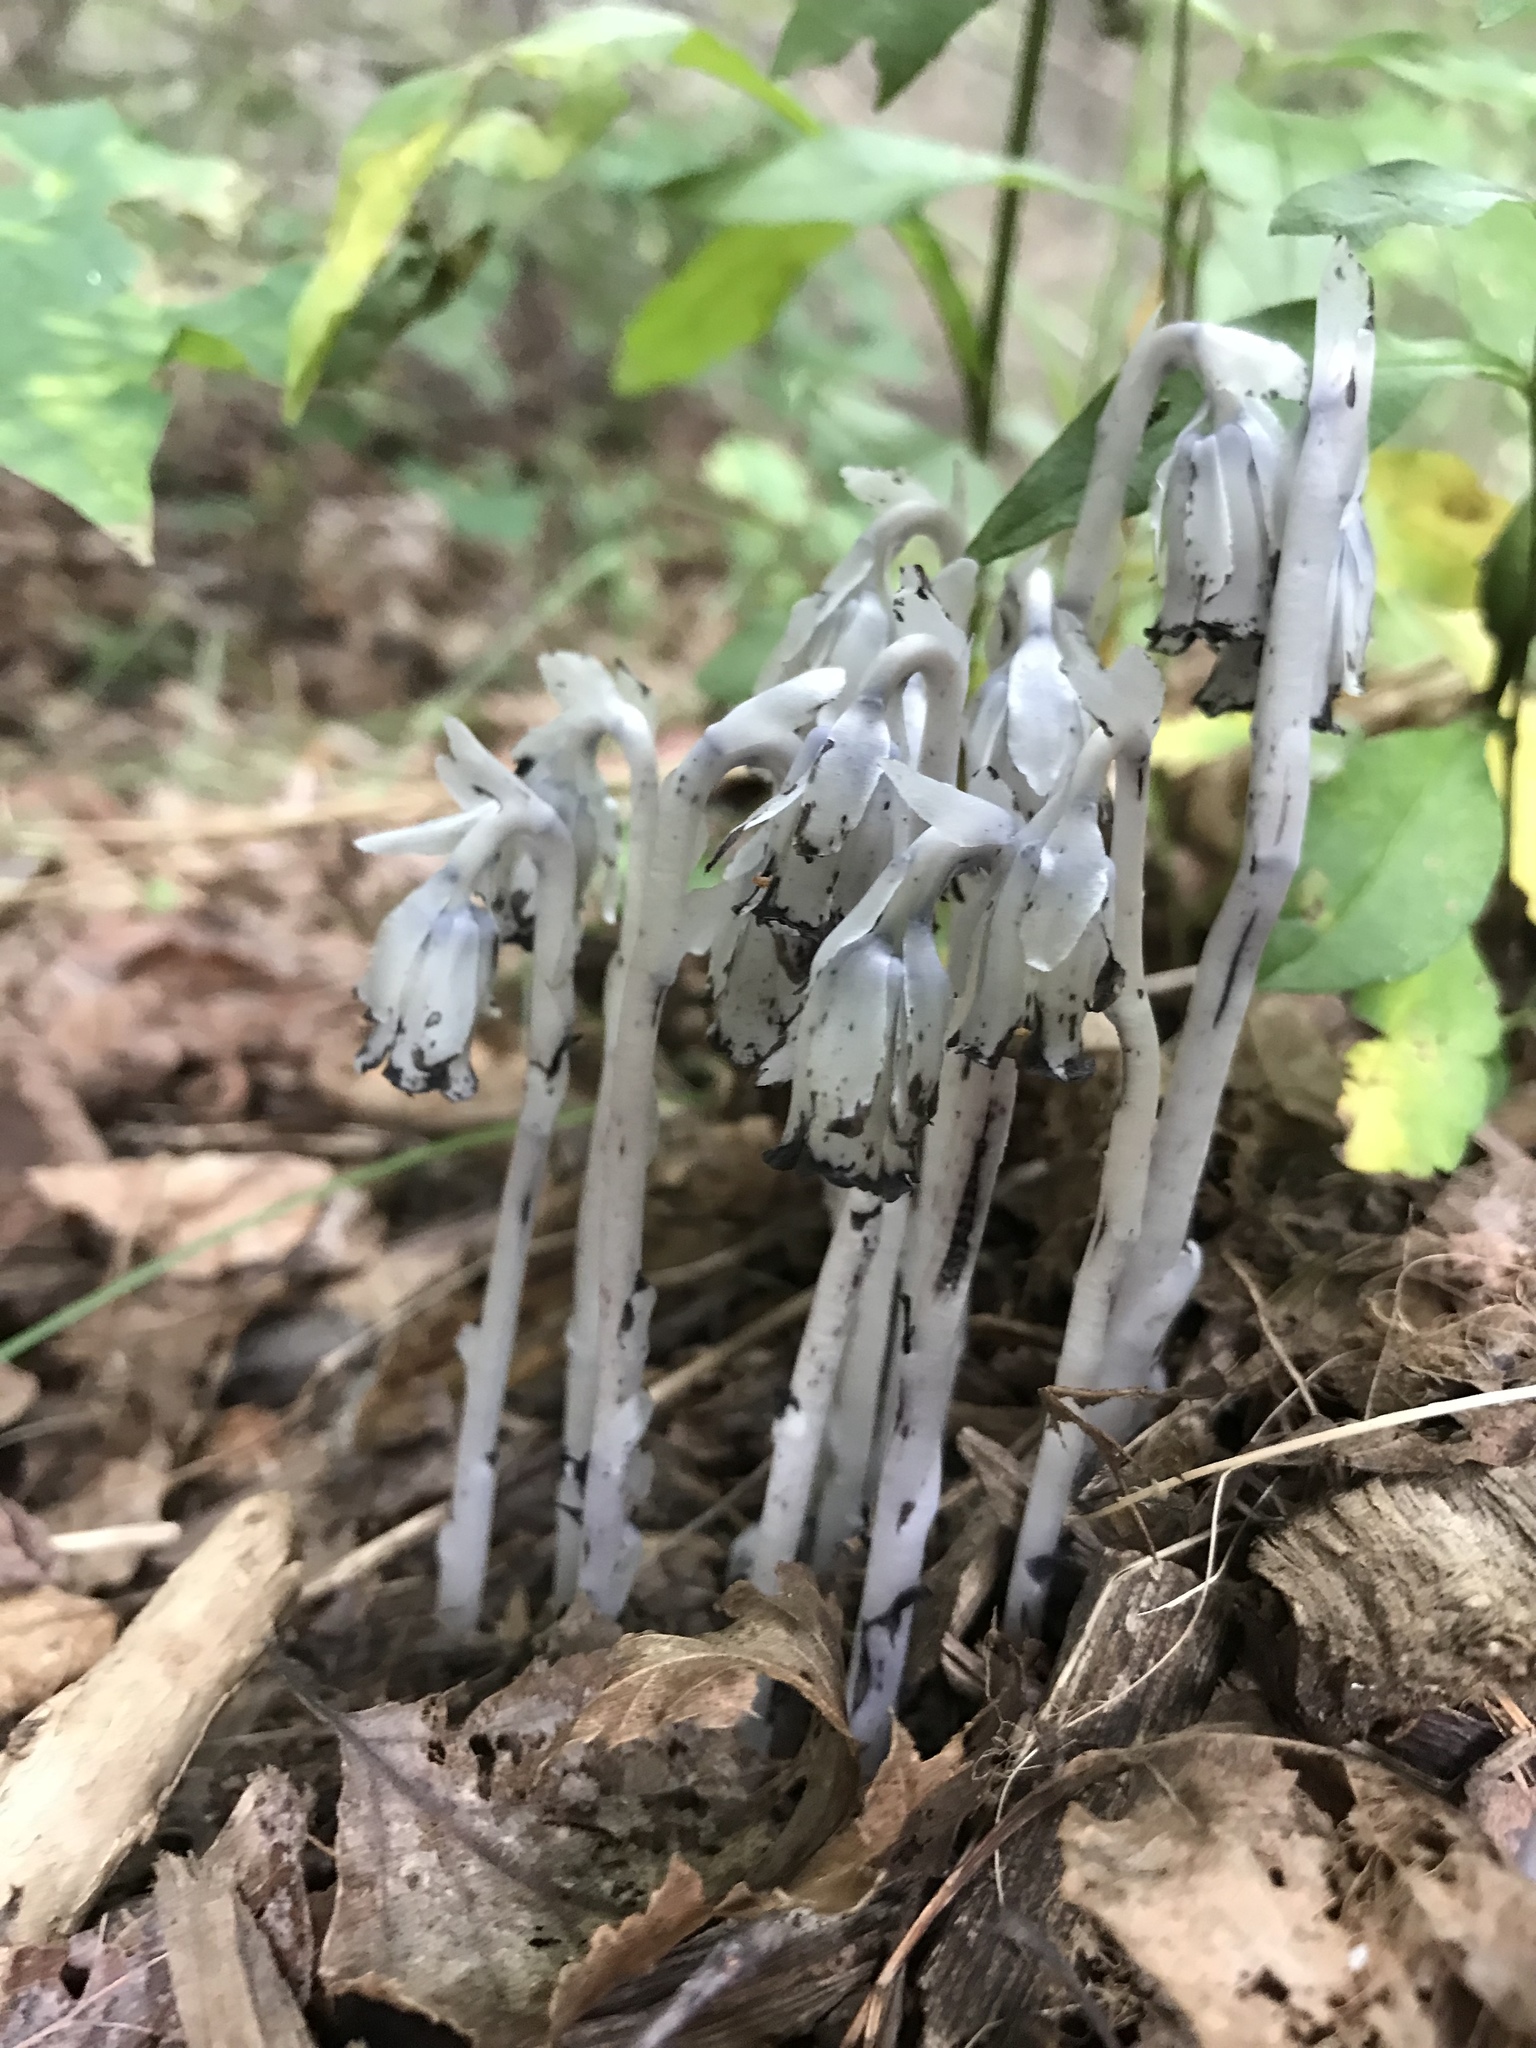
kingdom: Plantae
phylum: Tracheophyta
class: Magnoliopsida
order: Ericales
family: Ericaceae
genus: Monotropa
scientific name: Monotropa uniflora
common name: Convulsion root
